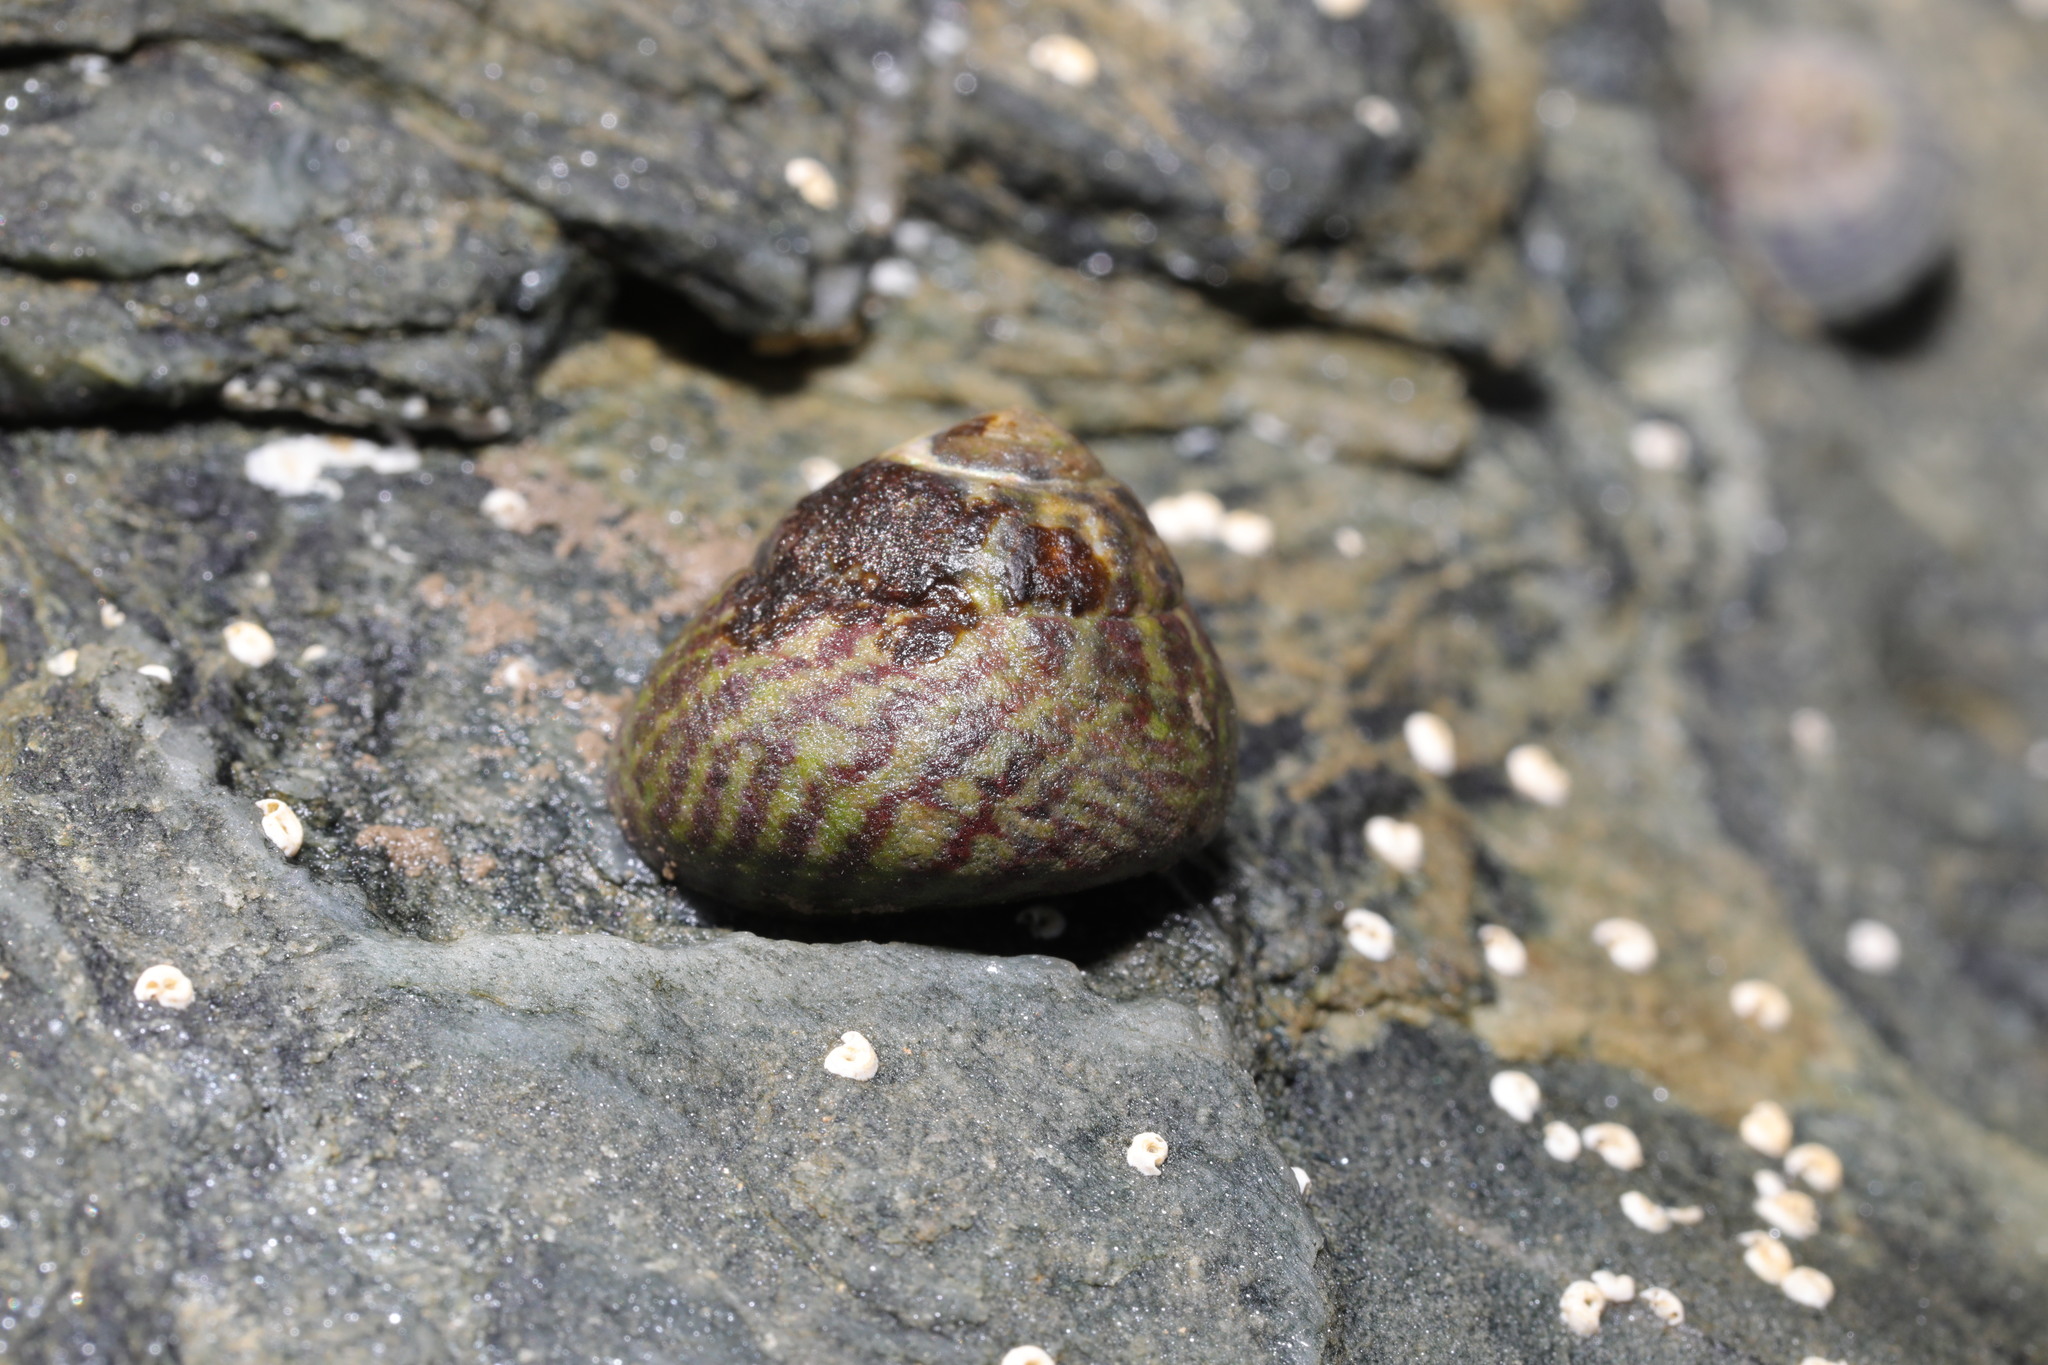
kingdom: Animalia
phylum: Mollusca
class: Gastropoda
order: Trochida
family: Trochidae
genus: Steromphala
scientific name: Steromphala umbilicalis
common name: Flat top shell
